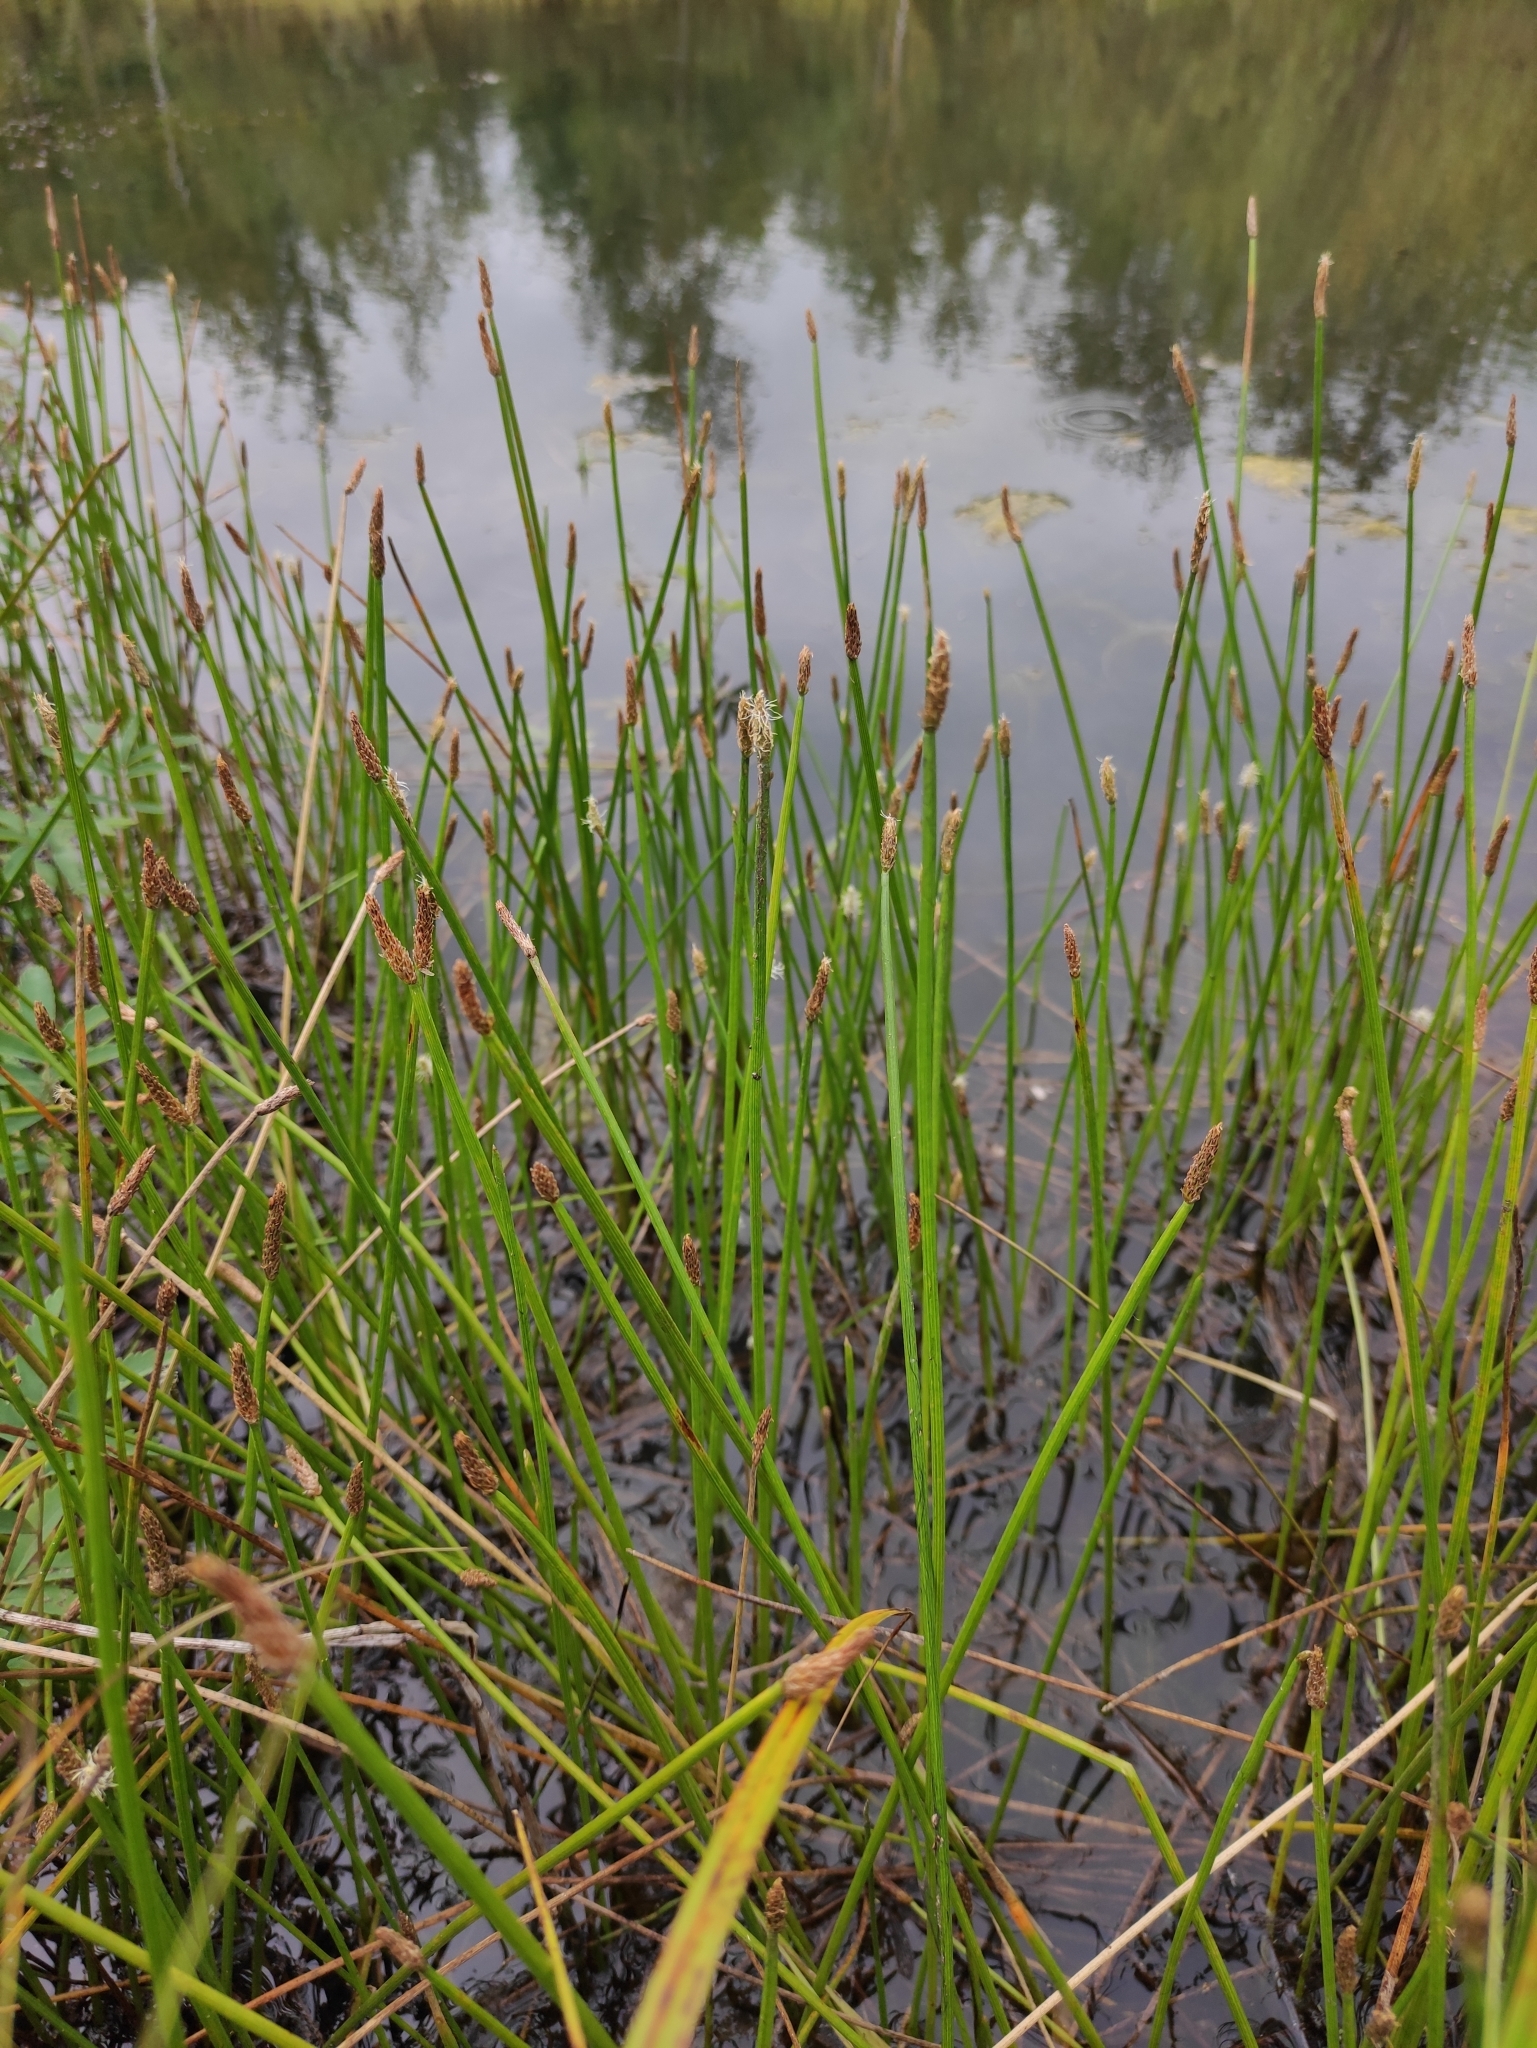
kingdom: Plantae
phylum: Tracheophyta
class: Liliopsida
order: Poales
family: Cyperaceae
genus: Eleocharis
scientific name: Eleocharis palustris
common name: Common spike-rush
